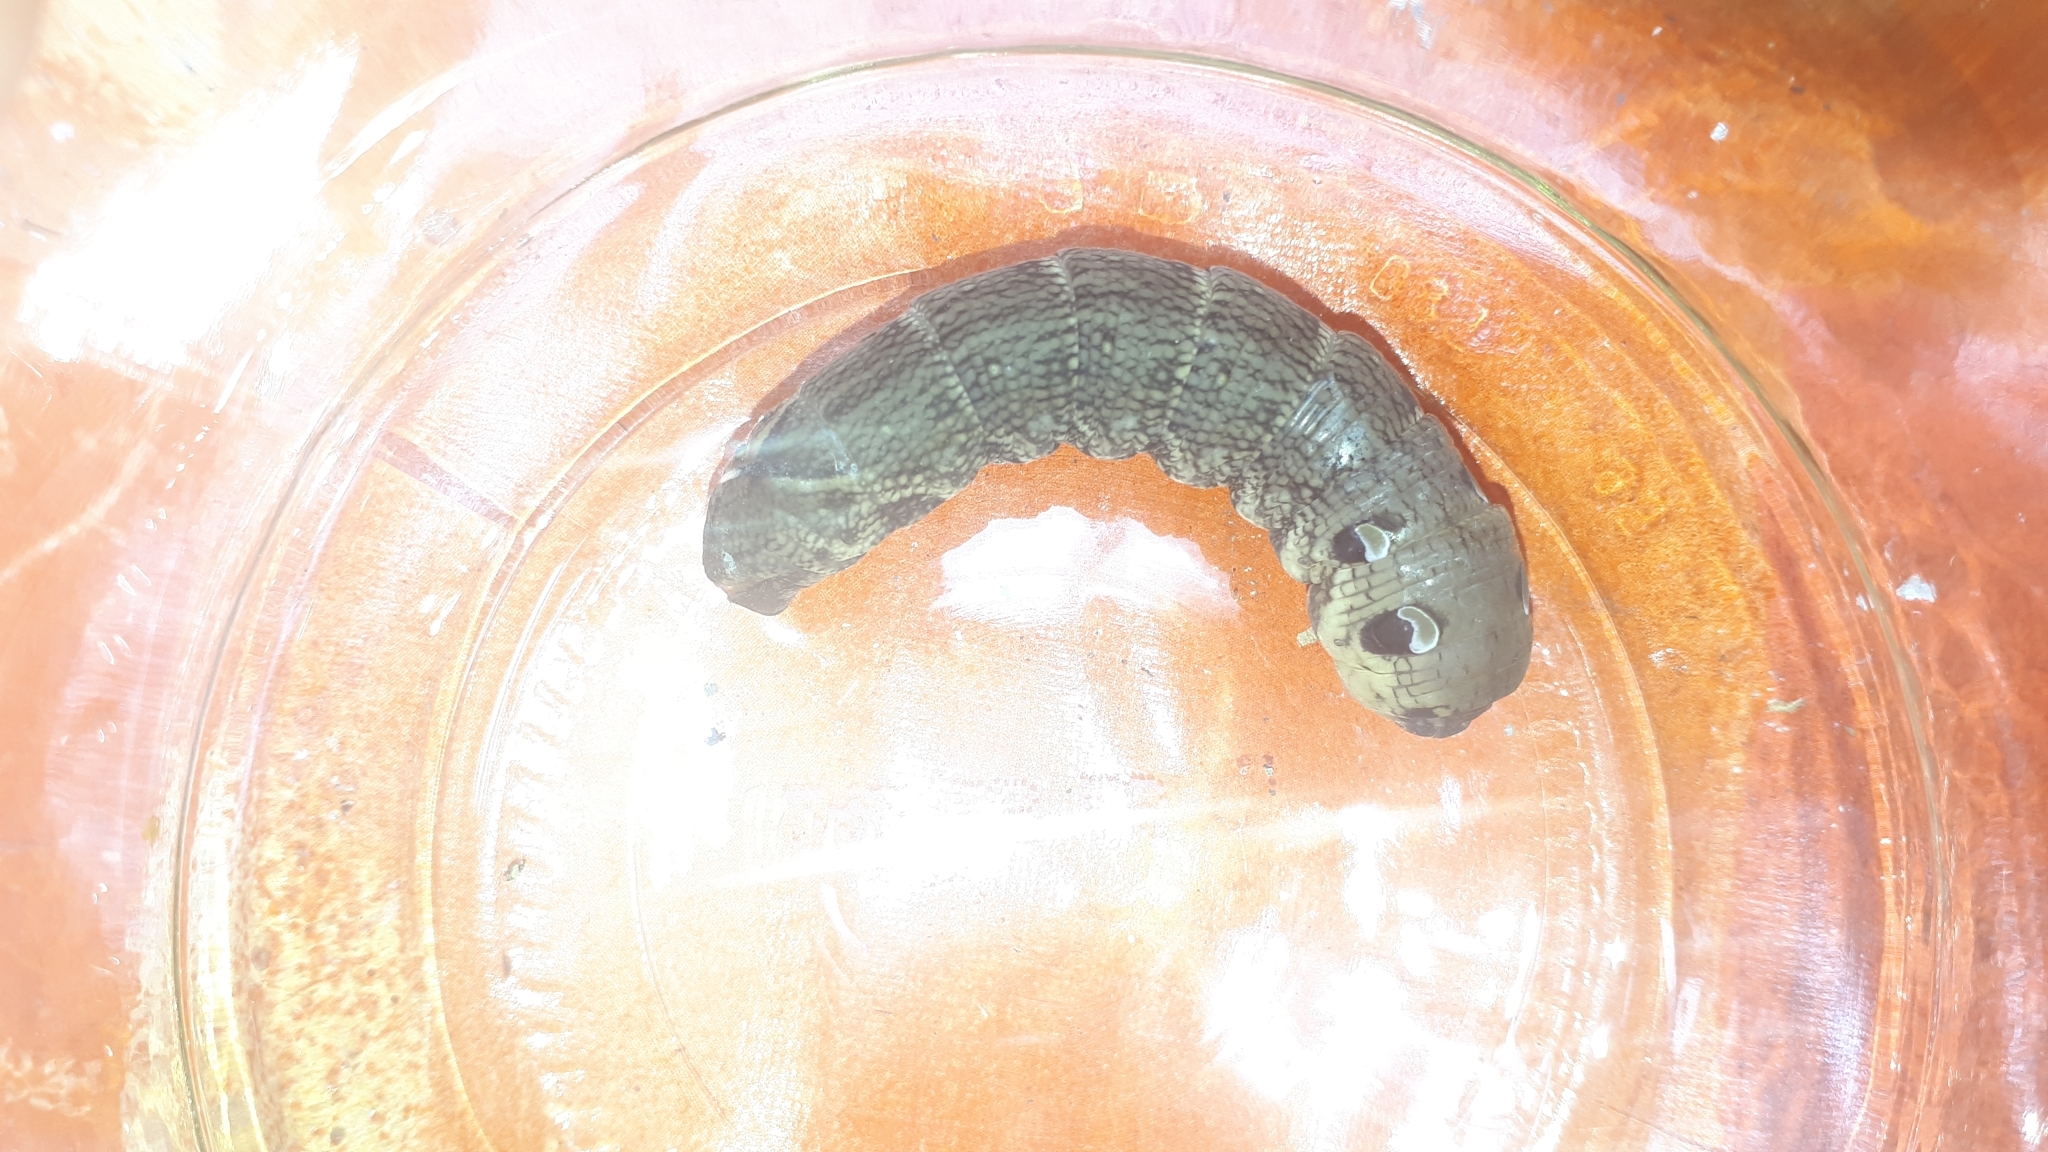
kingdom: Animalia
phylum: Arthropoda
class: Insecta
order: Lepidoptera
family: Sphingidae
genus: Deilephila
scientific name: Deilephila elpenor
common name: Elephant hawk-moth
